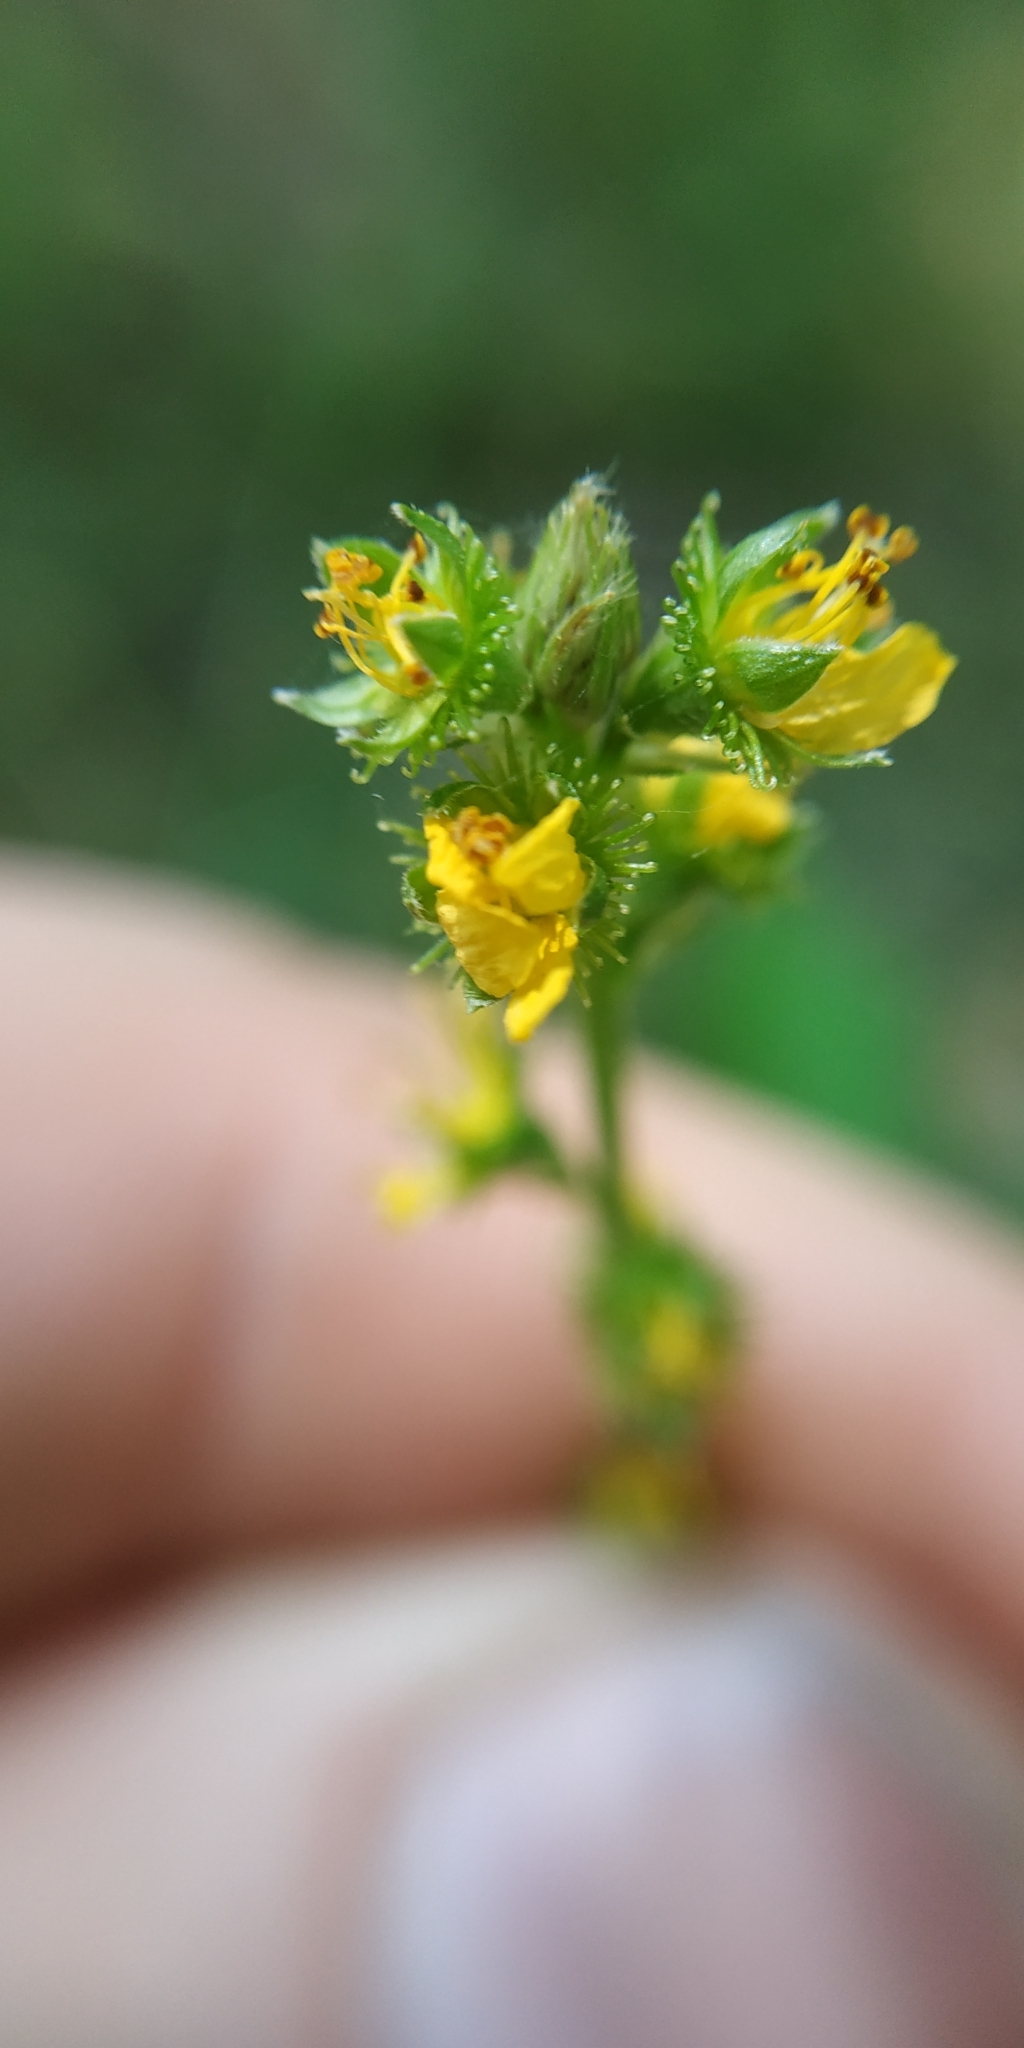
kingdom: Plantae
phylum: Tracheophyta
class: Magnoliopsida
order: Rosales
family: Rosaceae
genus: Agrimonia
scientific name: Agrimonia pilosa
